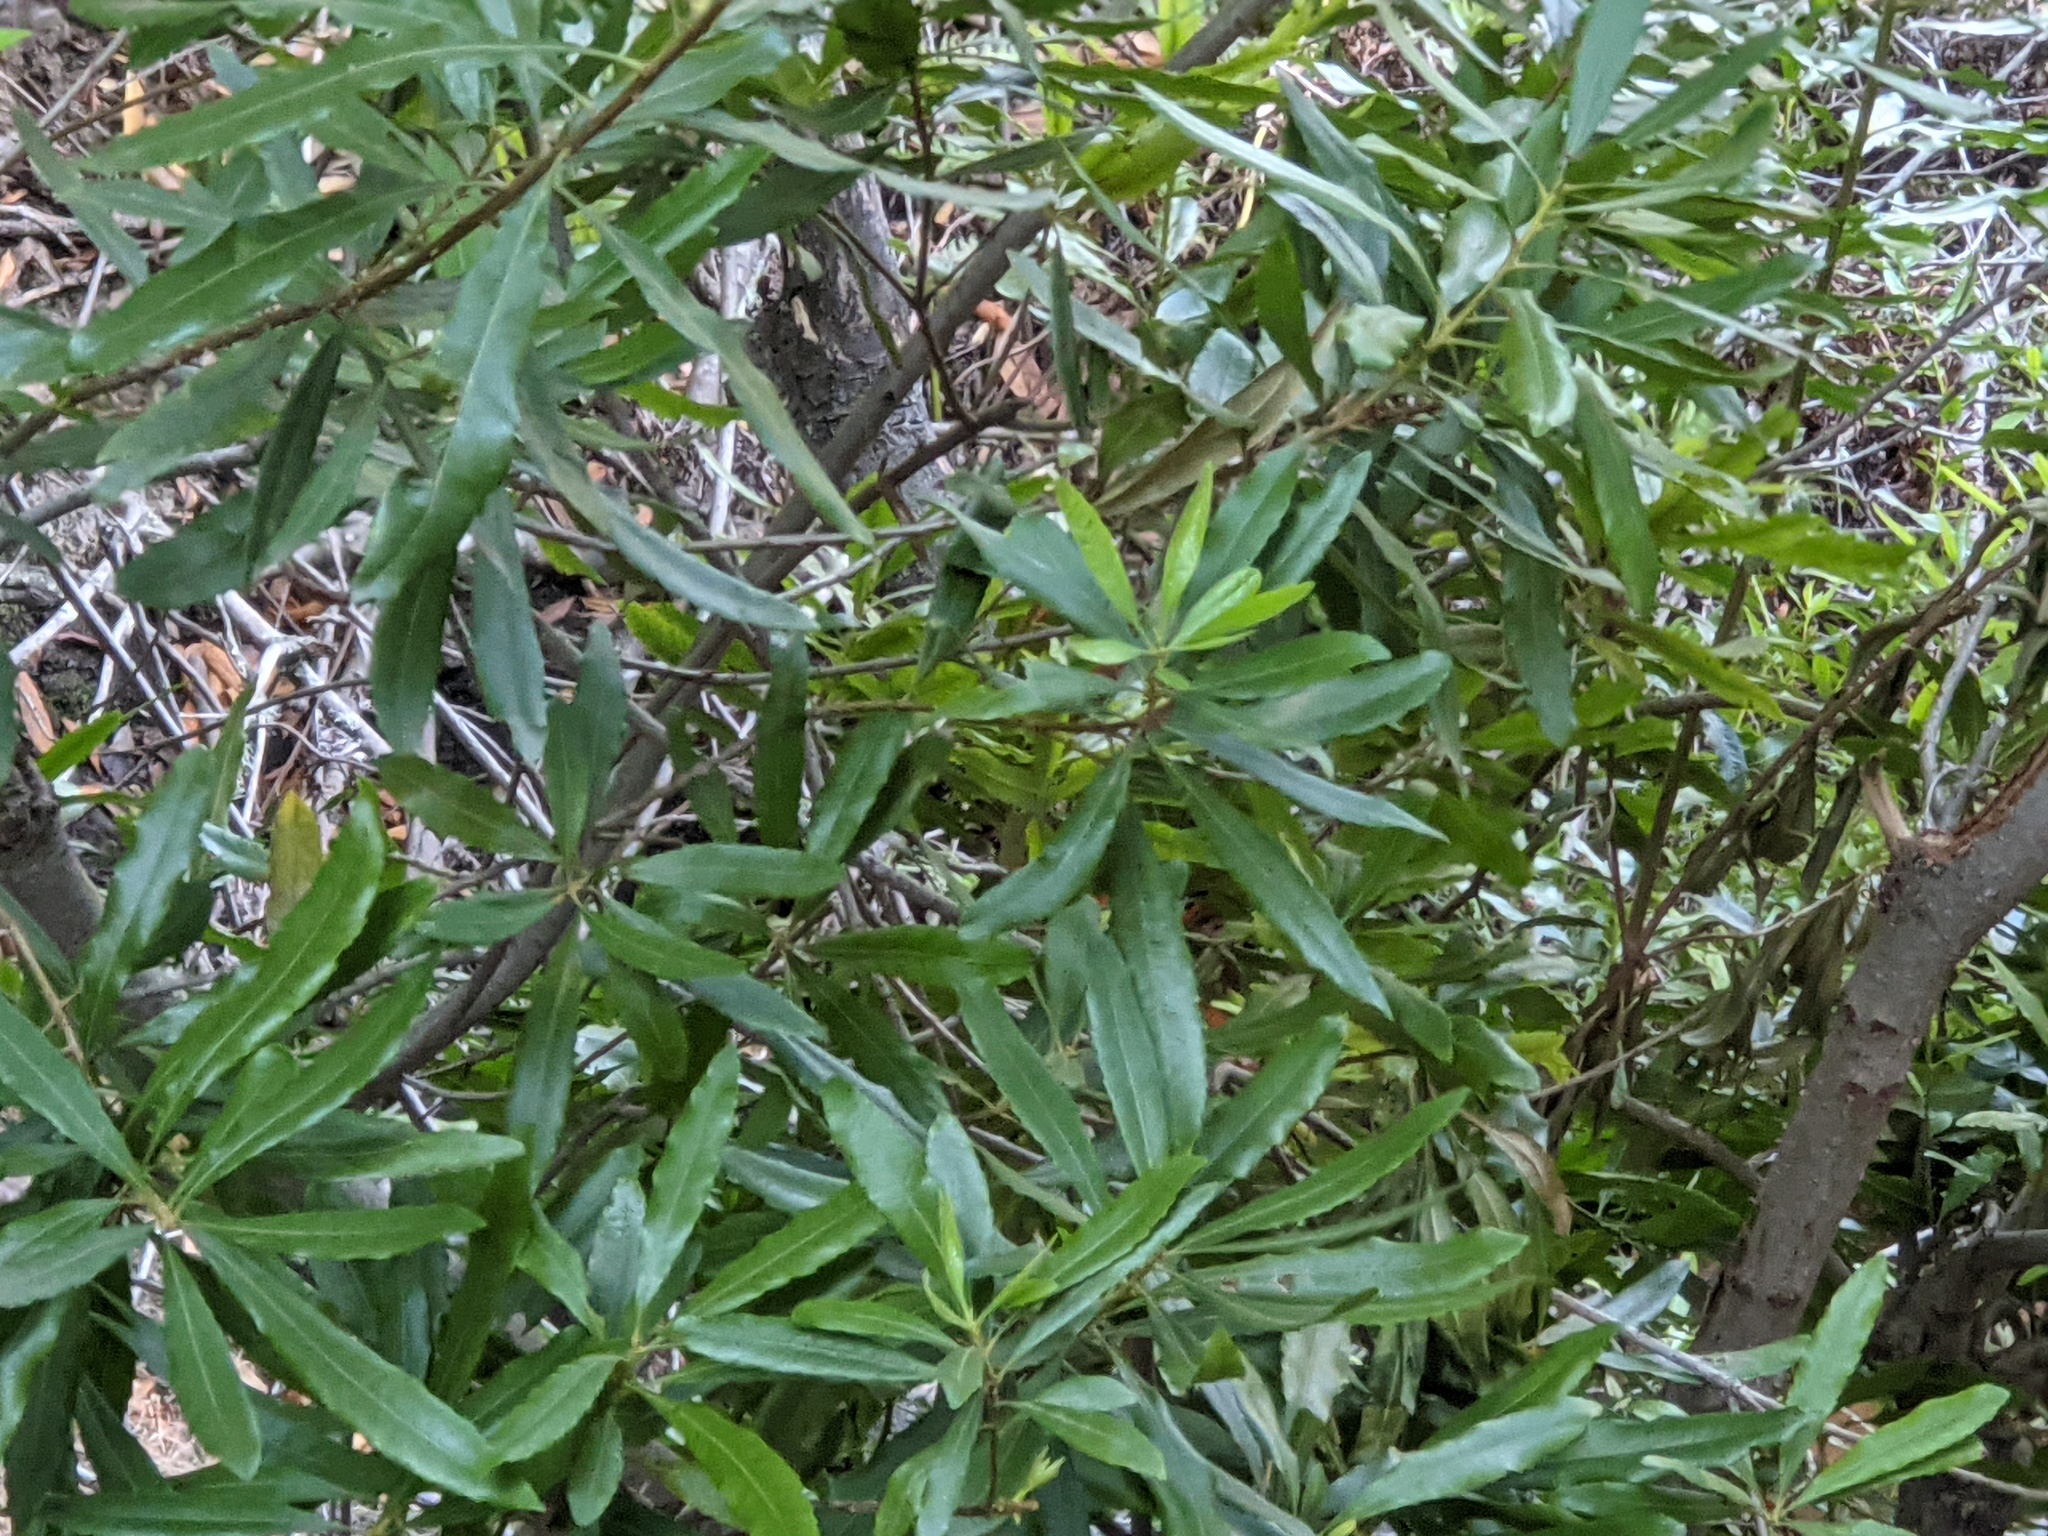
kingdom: Plantae
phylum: Tracheophyta
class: Magnoliopsida
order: Fagales
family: Myricaceae
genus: Morella
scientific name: Morella californica
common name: California wax-myrtle
